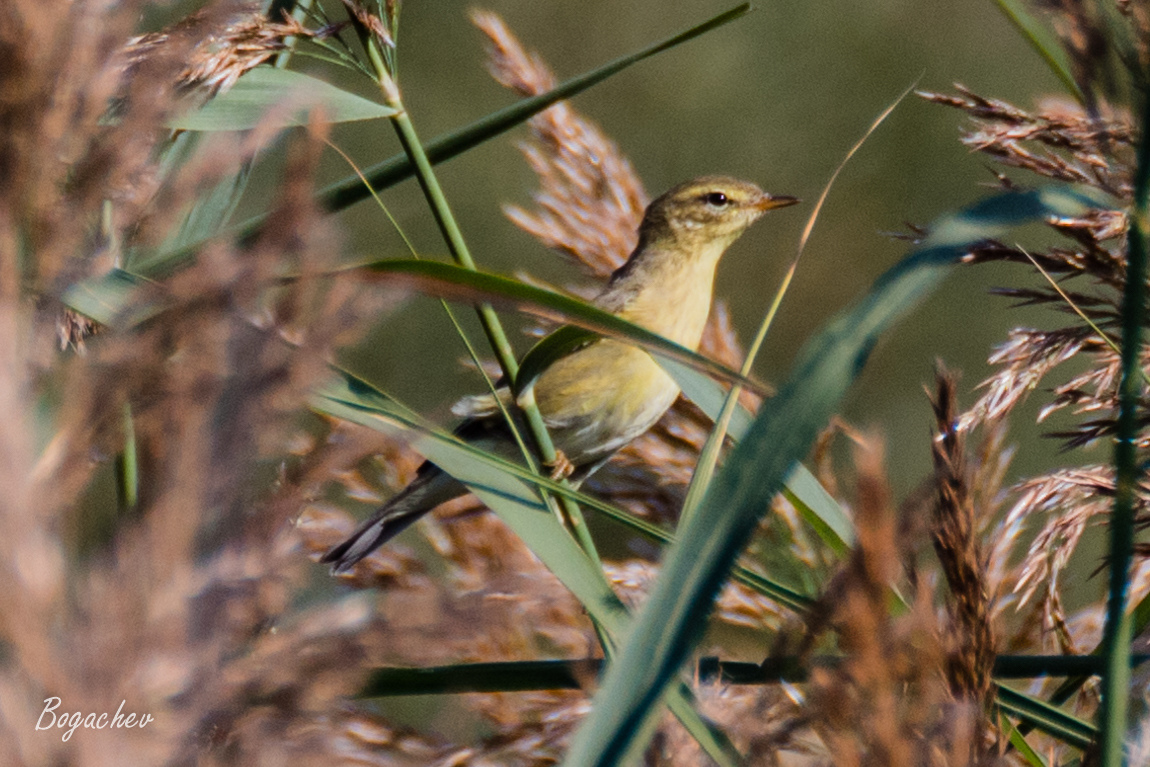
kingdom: Animalia
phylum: Chordata
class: Aves
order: Passeriformes
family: Phylloscopidae
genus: Phylloscopus
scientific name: Phylloscopus trochilus
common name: Willow warbler
